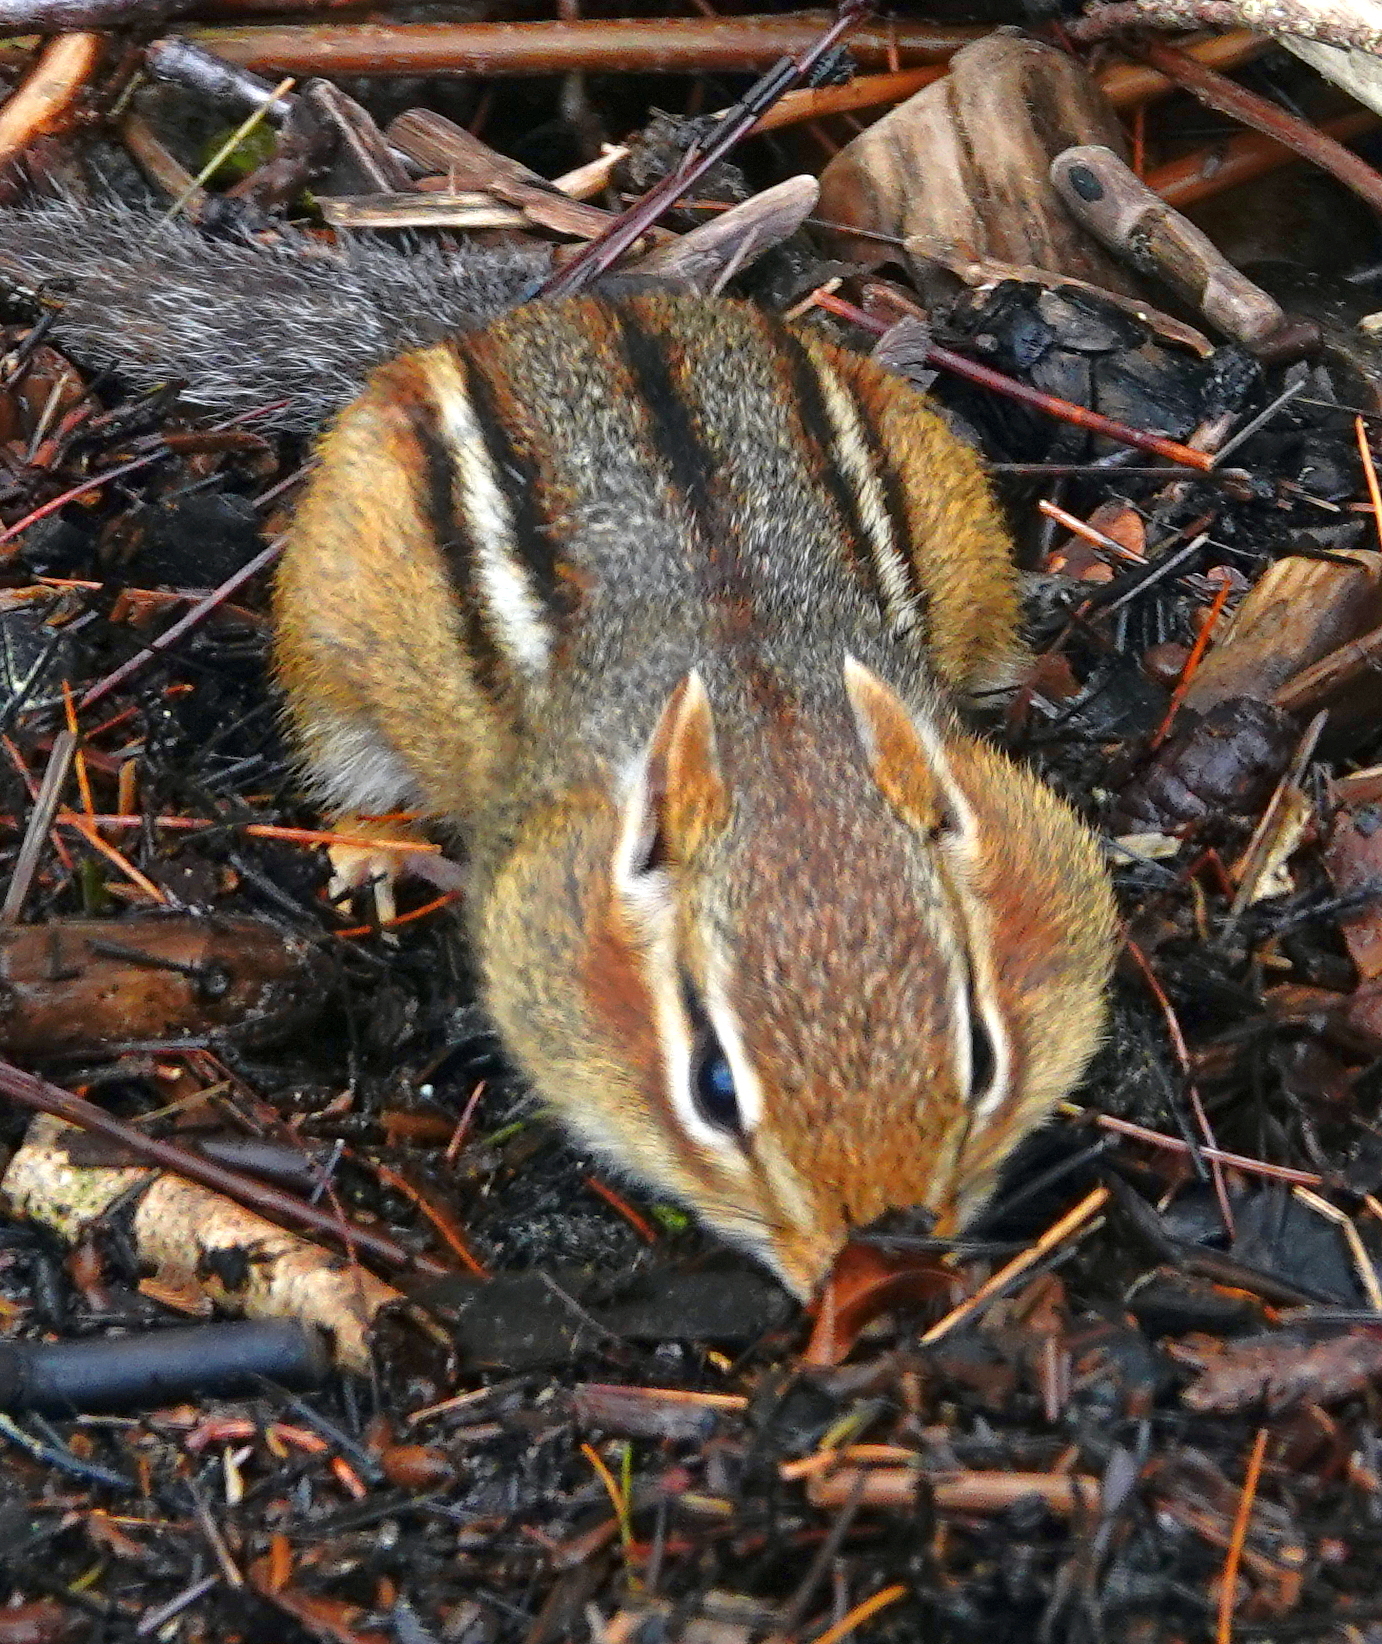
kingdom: Animalia
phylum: Chordata
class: Mammalia
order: Rodentia
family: Sciuridae
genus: Tamias
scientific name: Tamias striatus
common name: Eastern chipmunk
